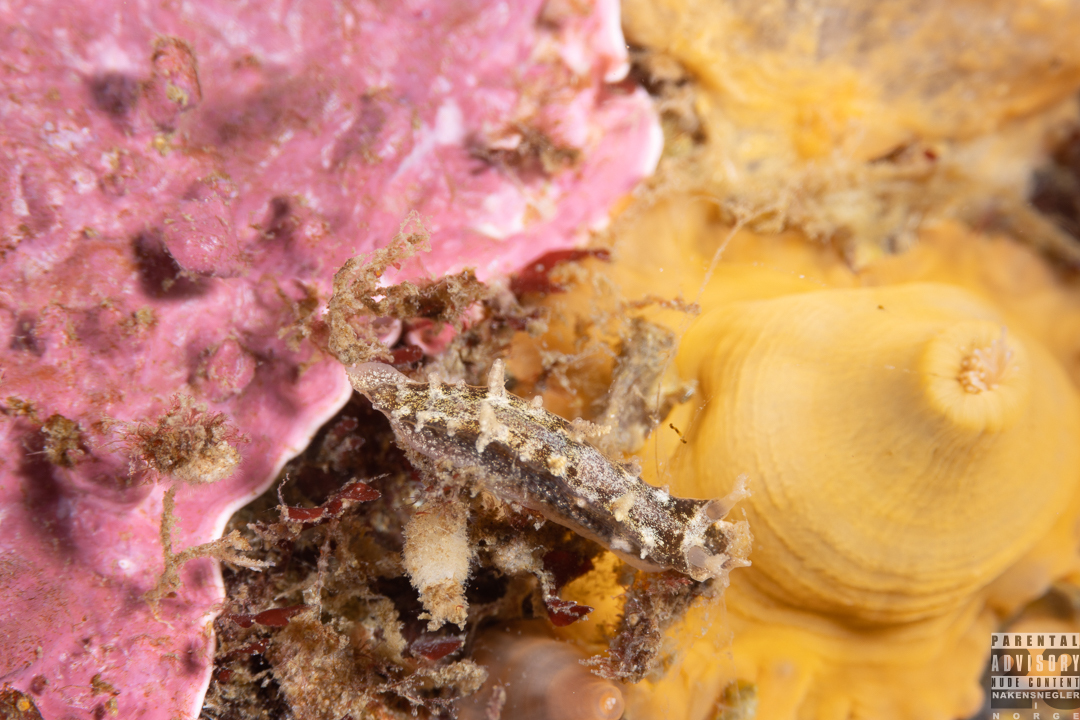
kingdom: Animalia
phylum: Mollusca
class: Gastropoda
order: Nudibranchia
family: Tritoniidae
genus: Duvaucelia
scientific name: Duvaucelia plebeia
